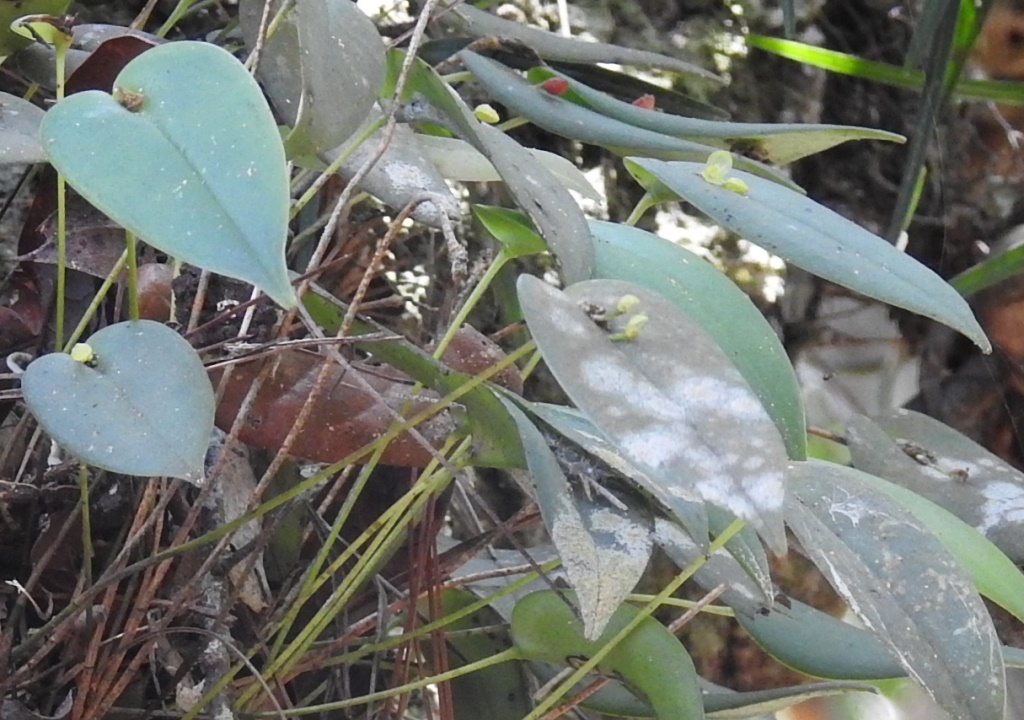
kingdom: Plantae
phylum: Tracheophyta
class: Liliopsida
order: Asparagales
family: Orchidaceae
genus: Pleurothallis
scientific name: Pleurothallis correllii
